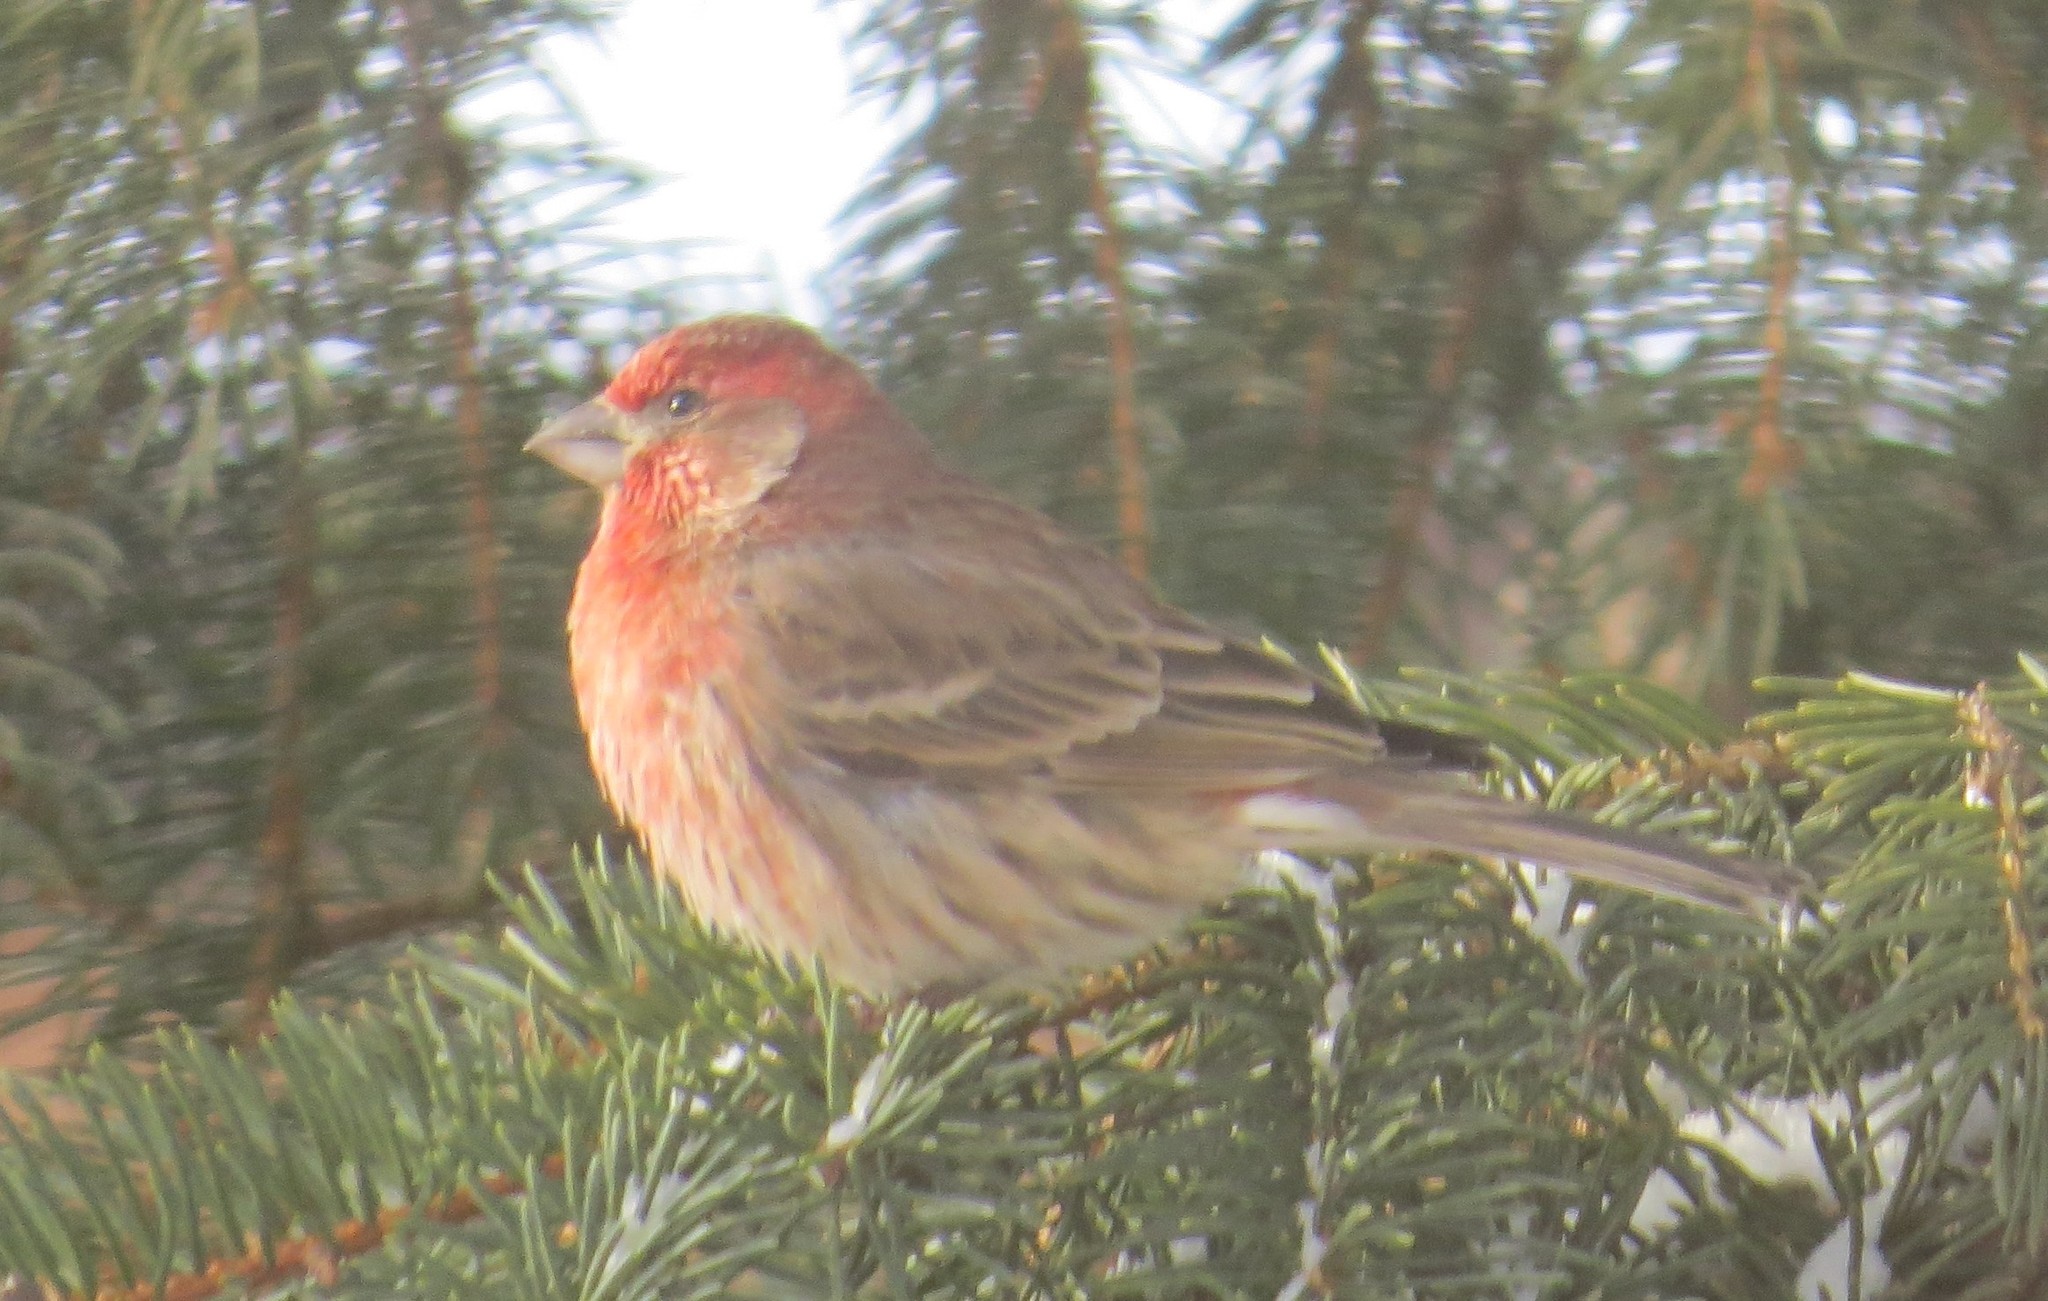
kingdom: Animalia
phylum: Chordata
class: Aves
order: Passeriformes
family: Fringillidae
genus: Haemorhous
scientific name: Haemorhous mexicanus
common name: House finch
